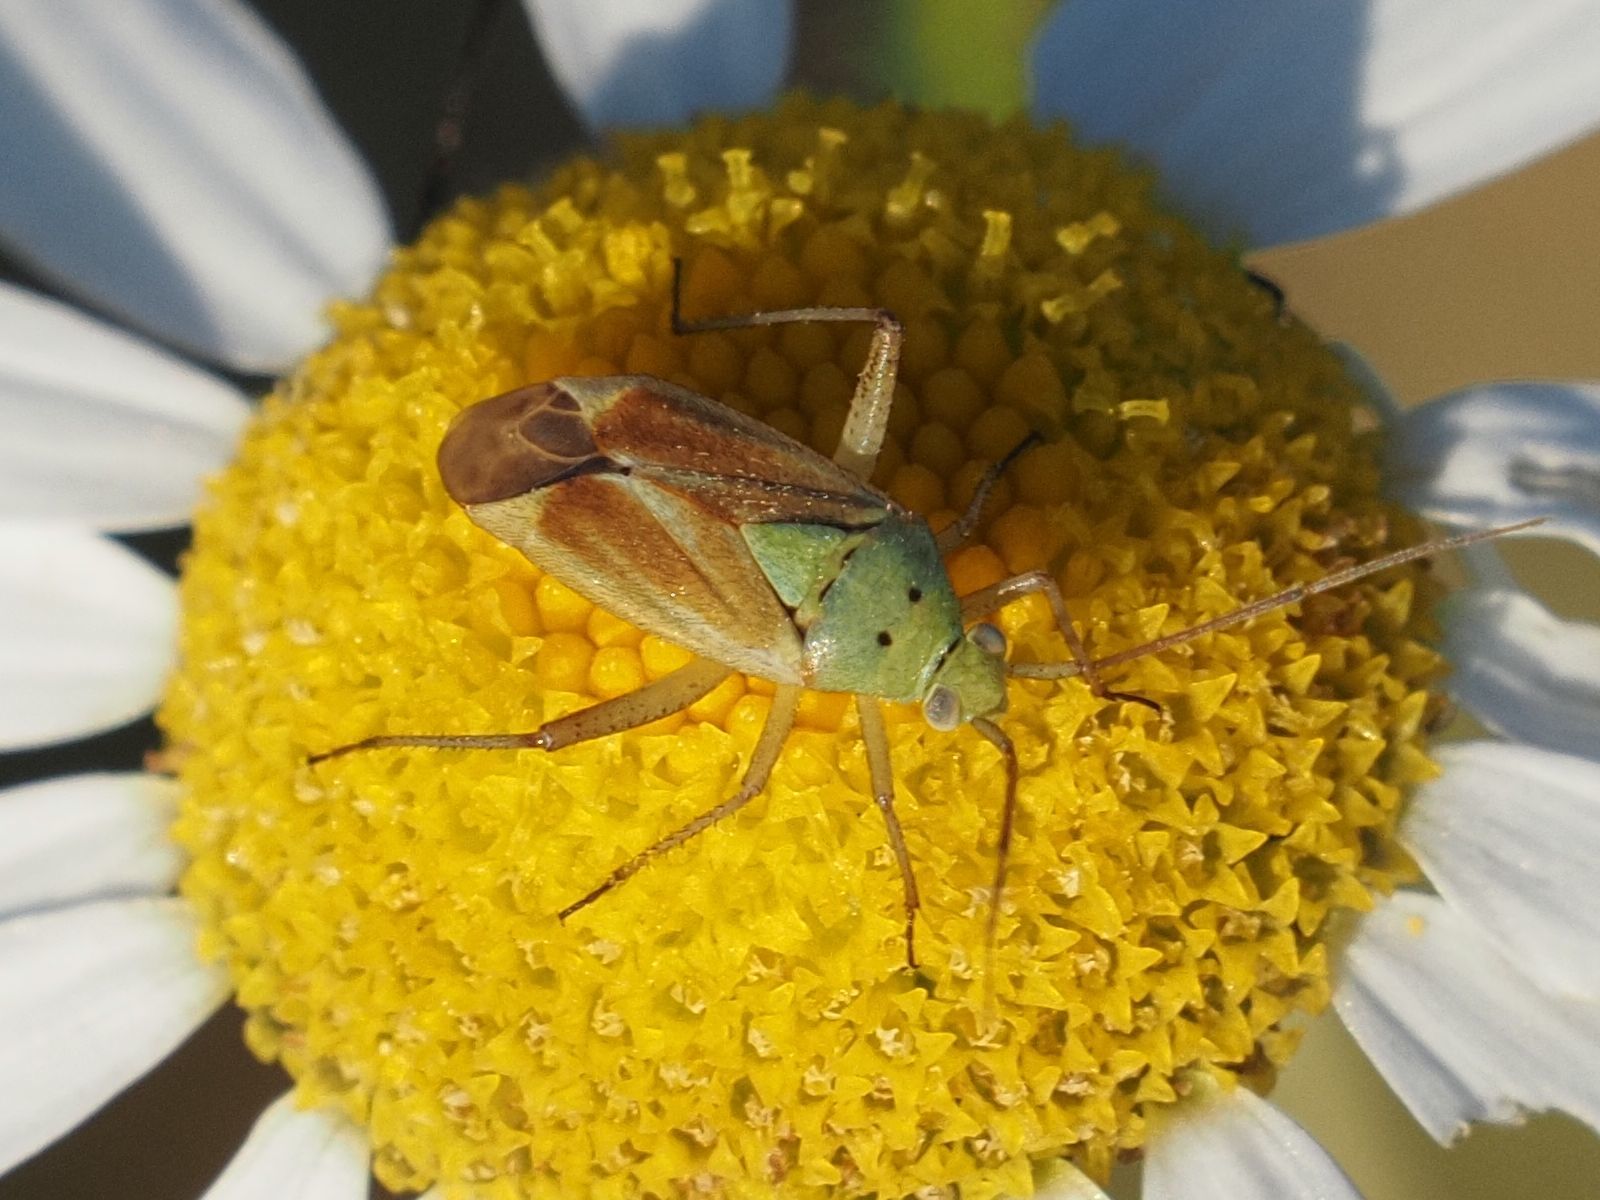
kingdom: Animalia
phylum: Arthropoda
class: Insecta
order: Hemiptera
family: Miridae
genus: Closterotomus
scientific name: Closterotomus norvegicus
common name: Plant bug
